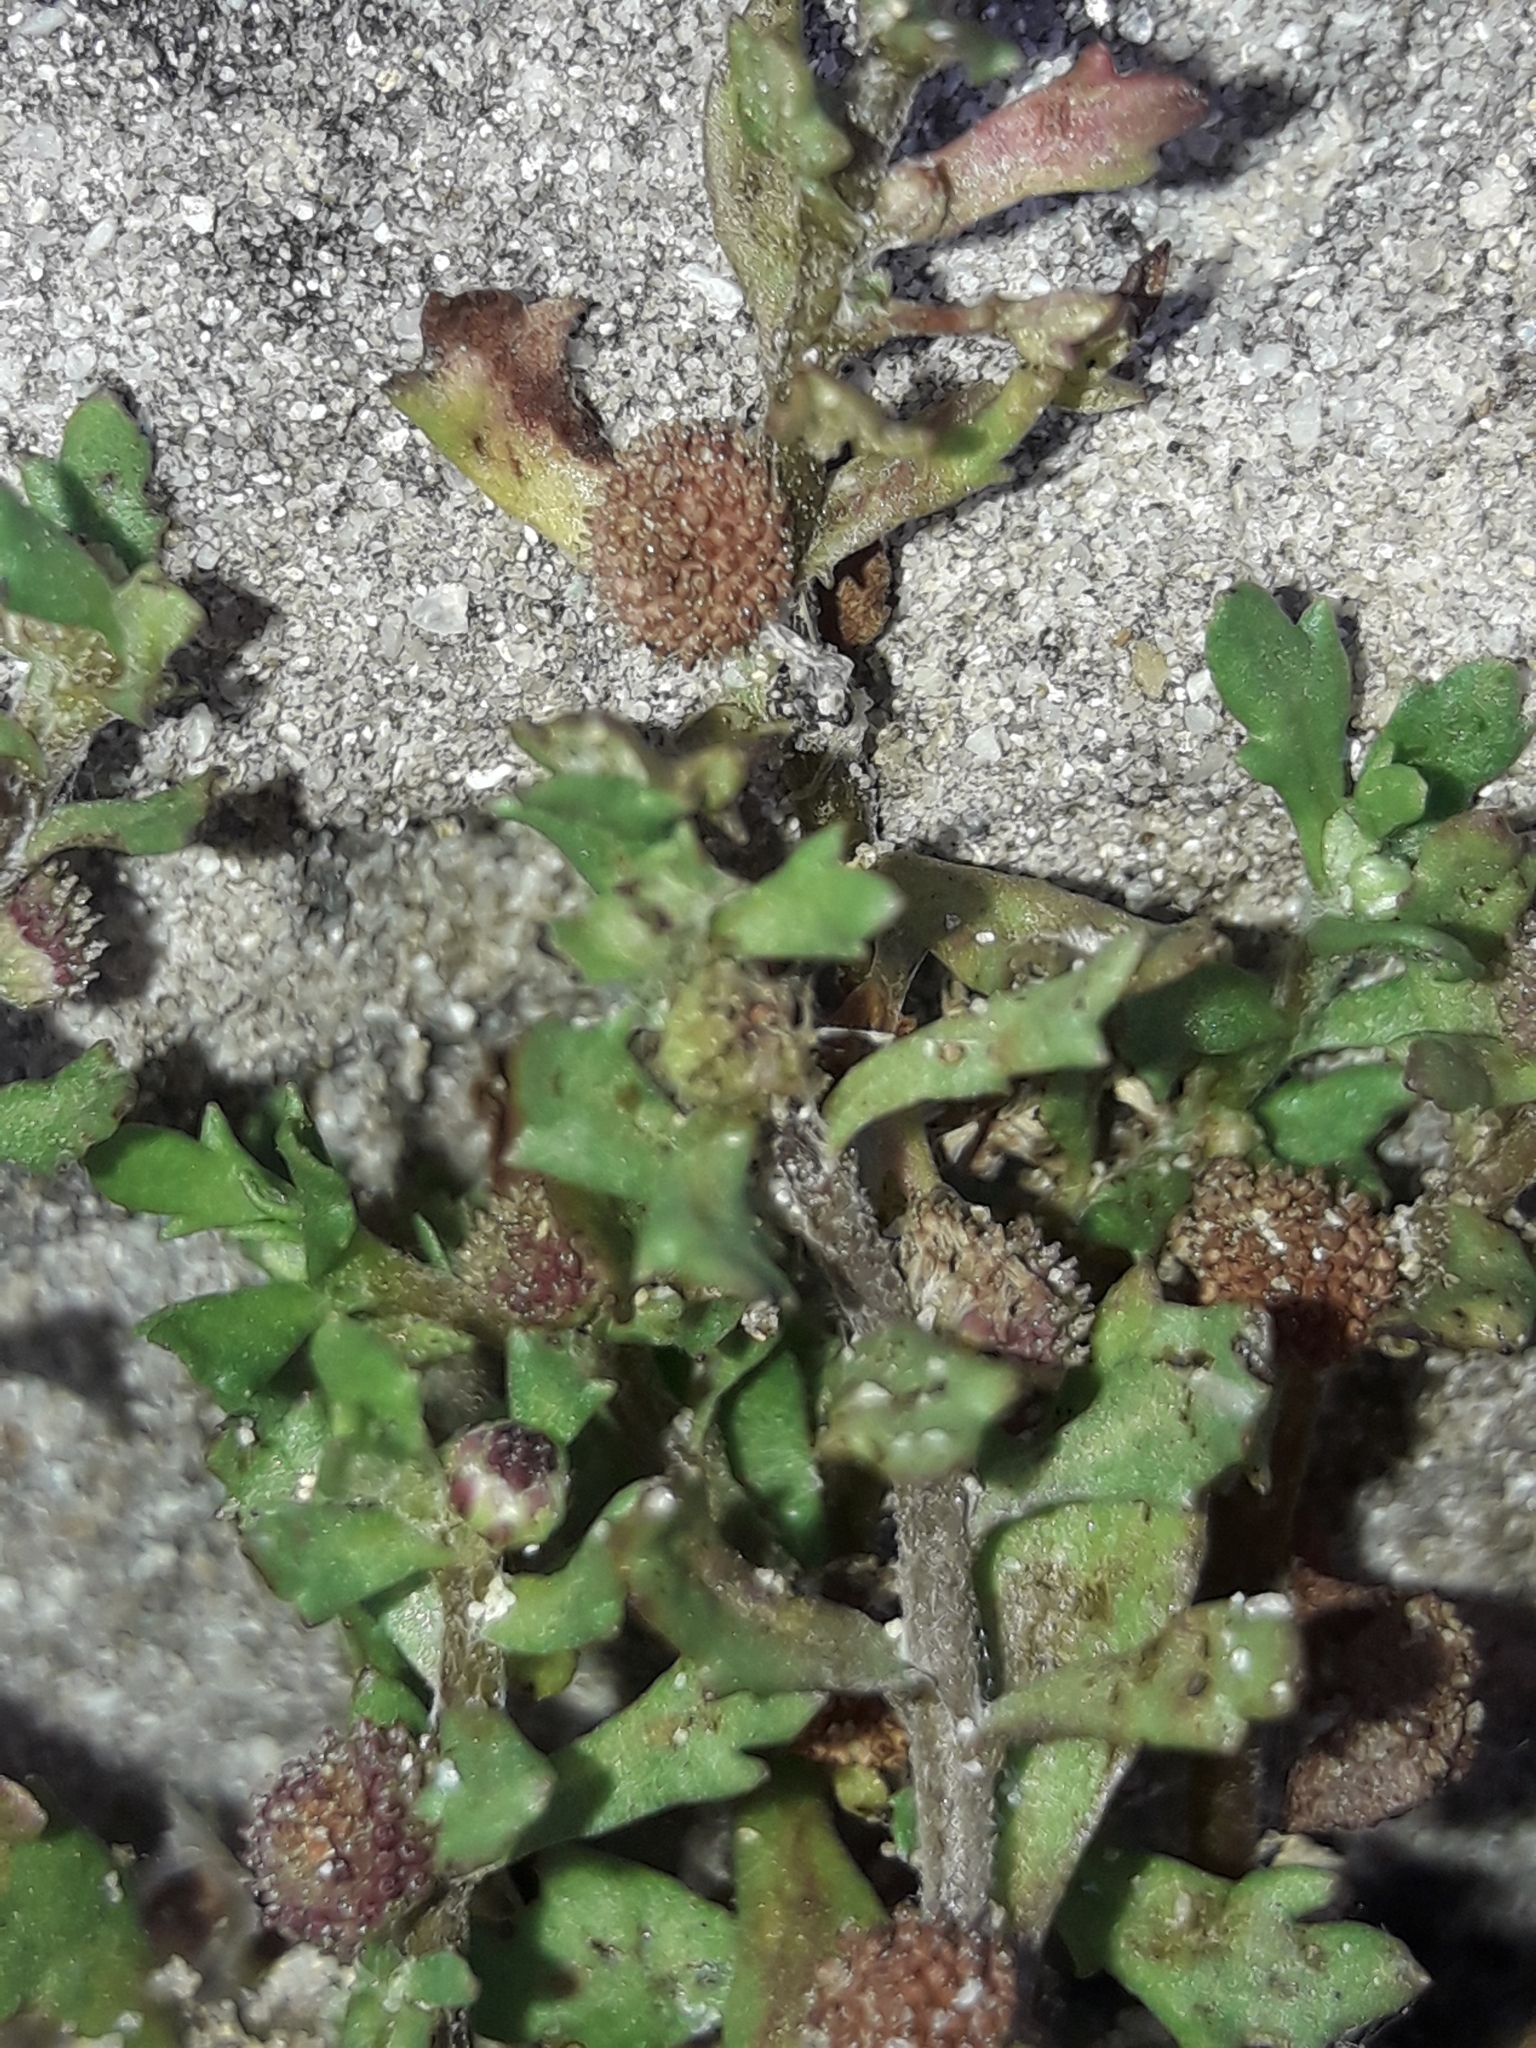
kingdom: Plantae
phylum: Tracheophyta
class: Magnoliopsida
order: Asterales
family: Asteraceae
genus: Centipeda
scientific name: Centipeda aotearoana
